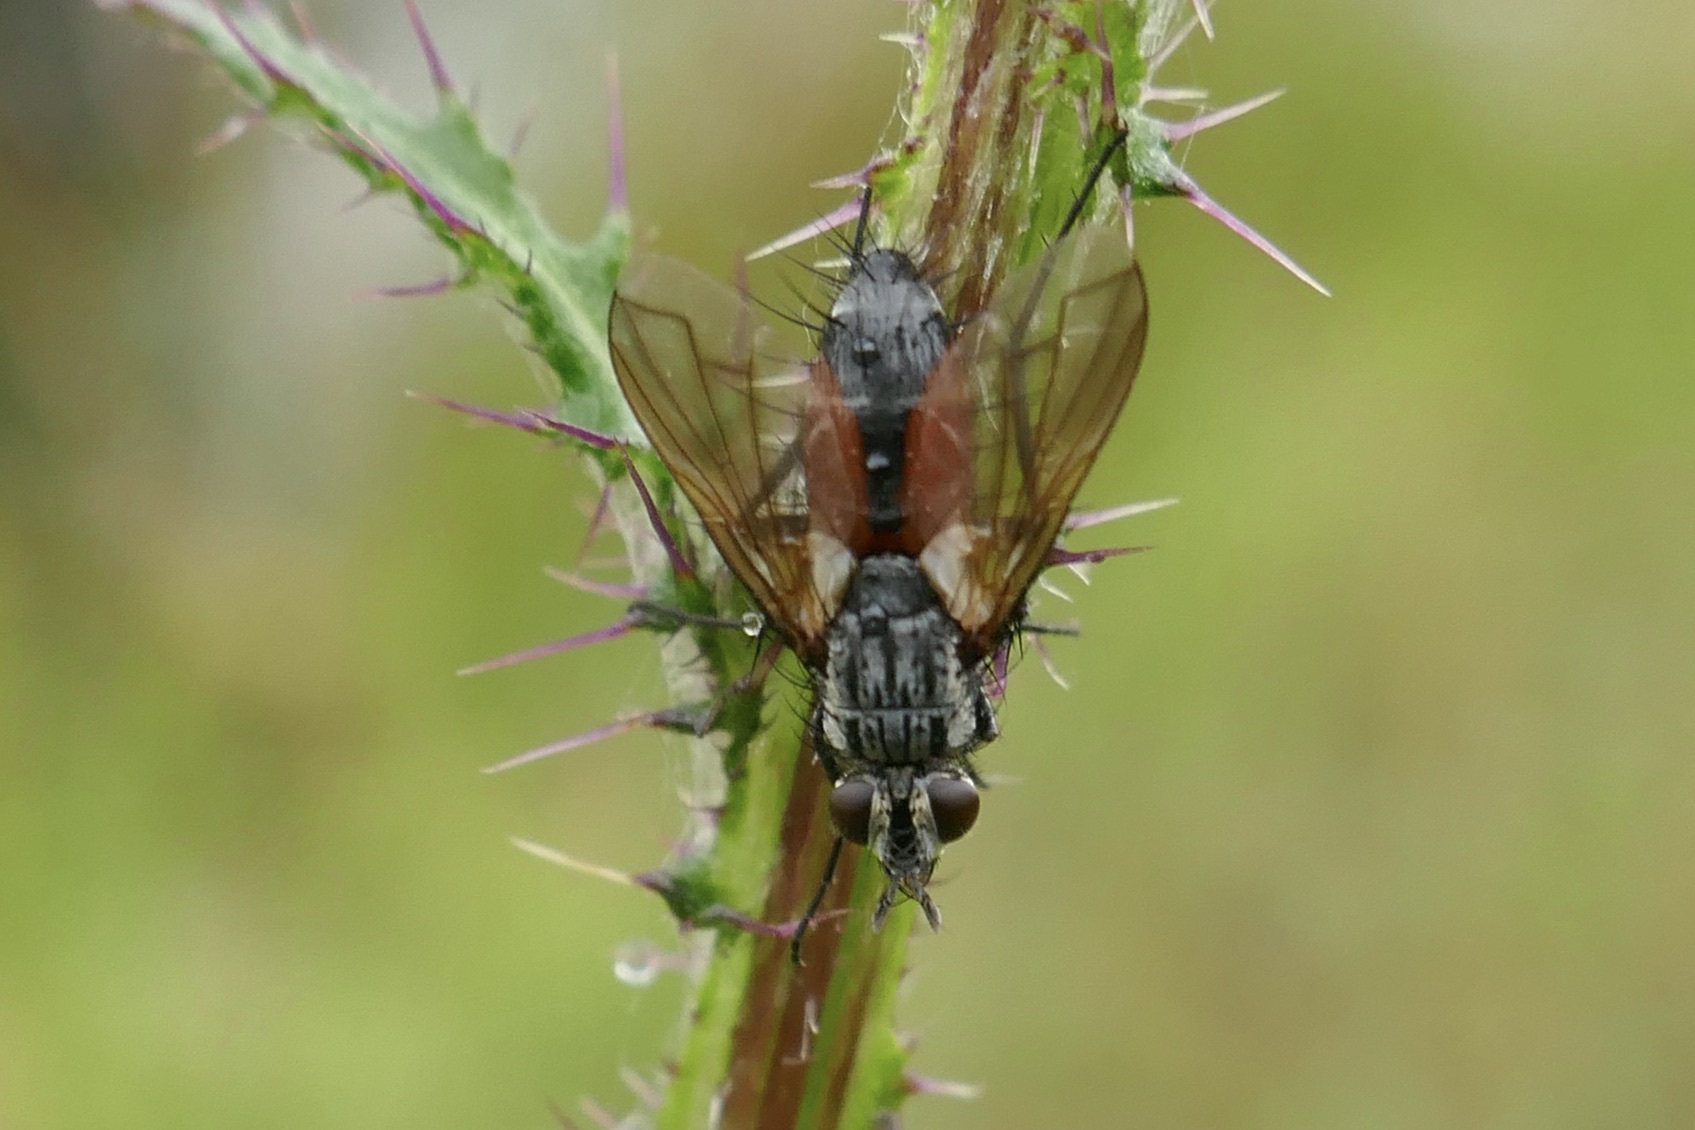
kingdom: Animalia
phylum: Arthropoda
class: Insecta
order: Diptera
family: Tachinidae
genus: Eriothrix
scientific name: Eriothrix rufomaculatus
